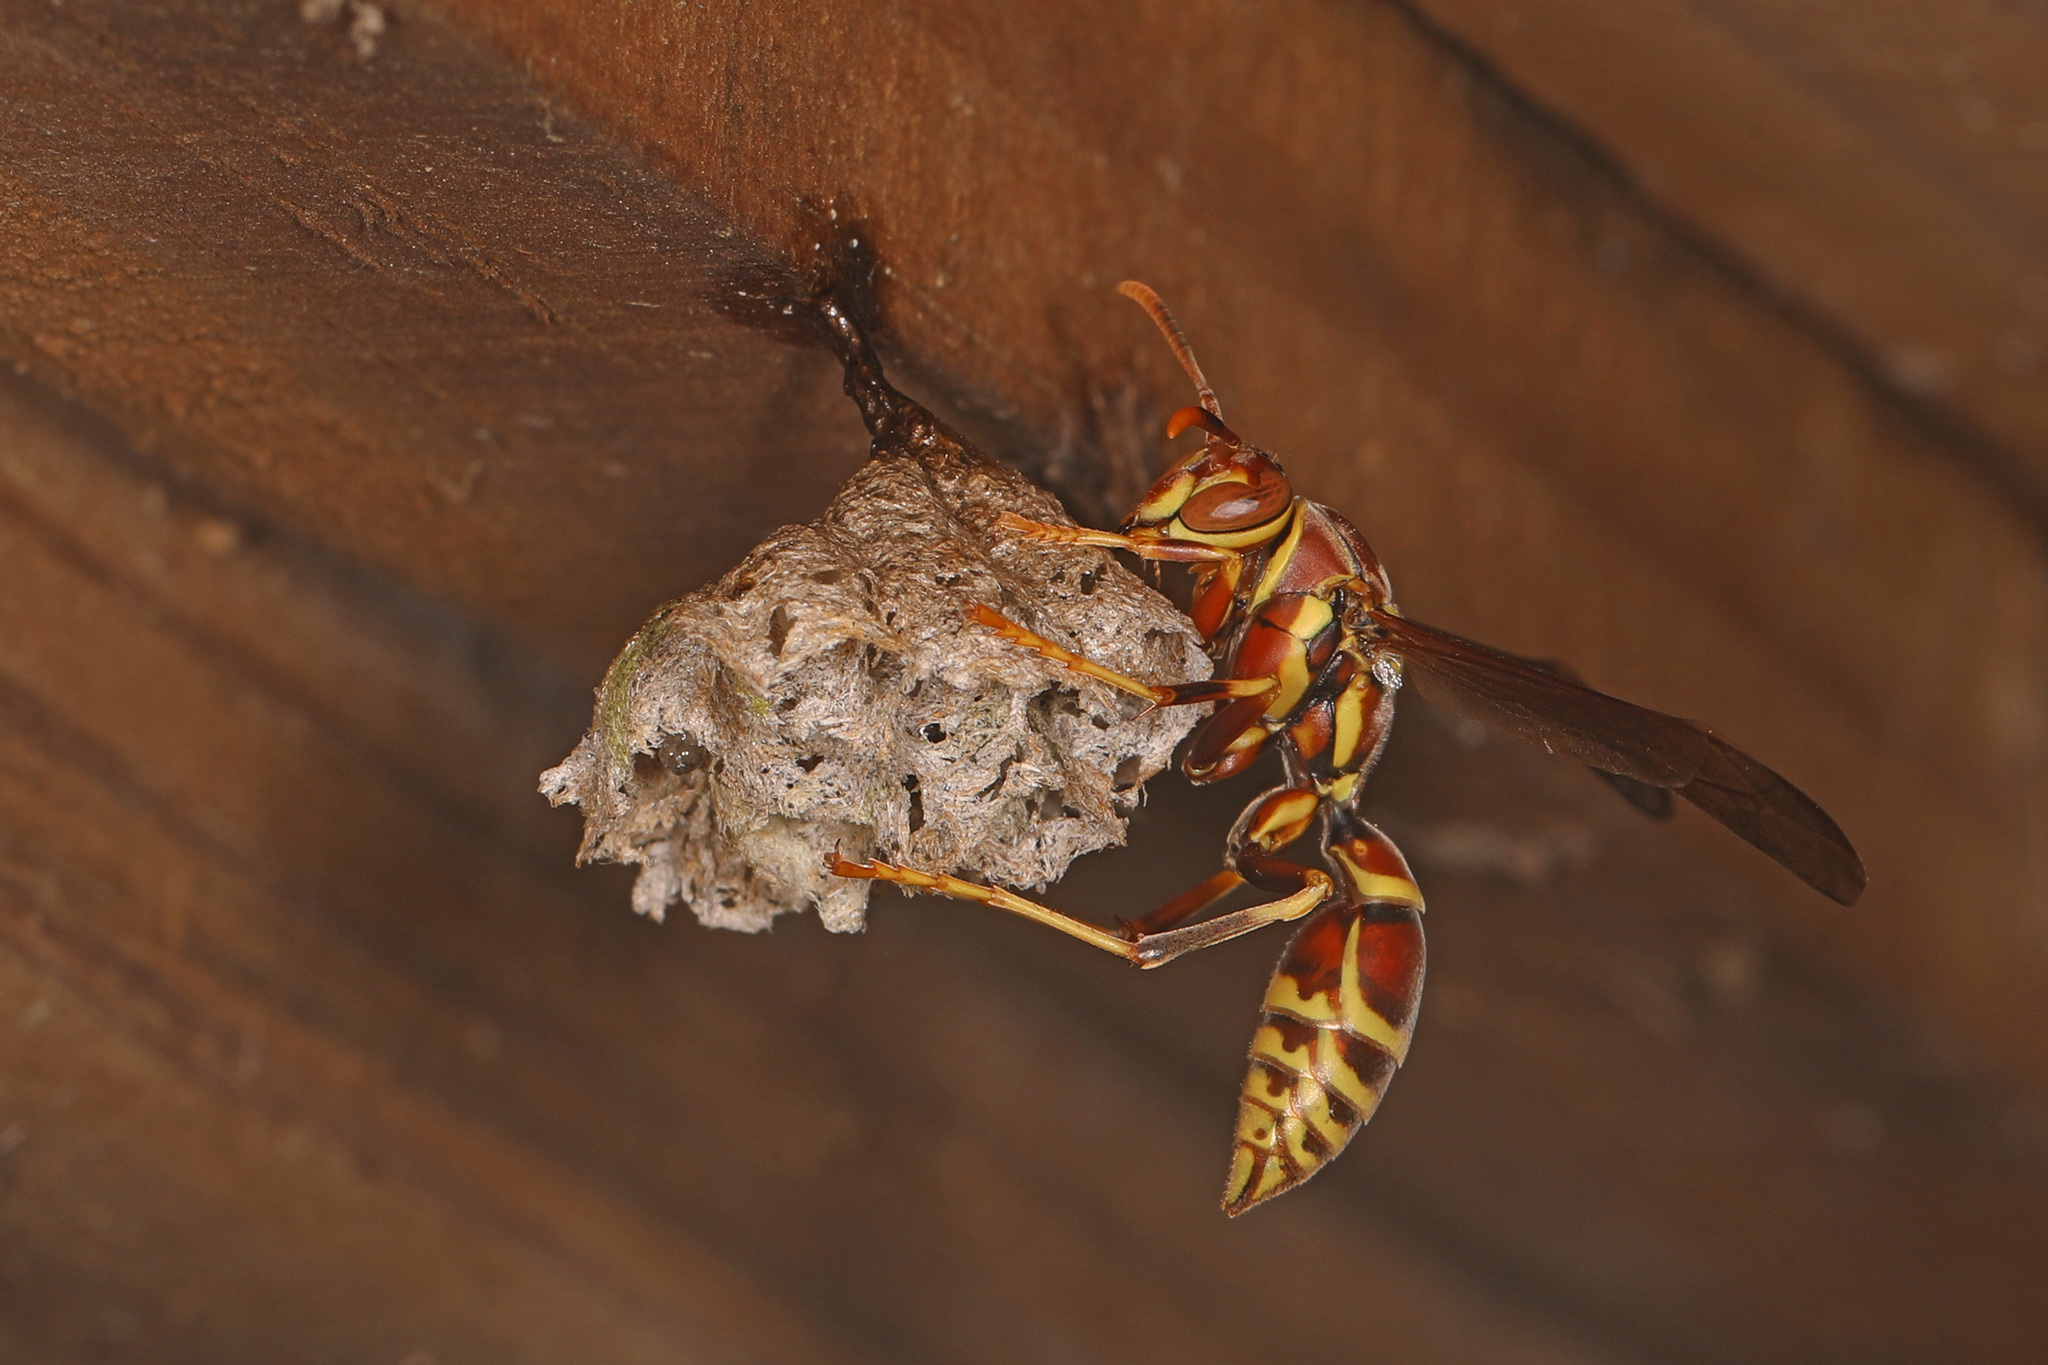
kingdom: Animalia
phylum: Arthropoda
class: Insecta
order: Hymenoptera
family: Eumenidae
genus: Polistes
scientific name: Polistes exclamans
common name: Paper wasp
